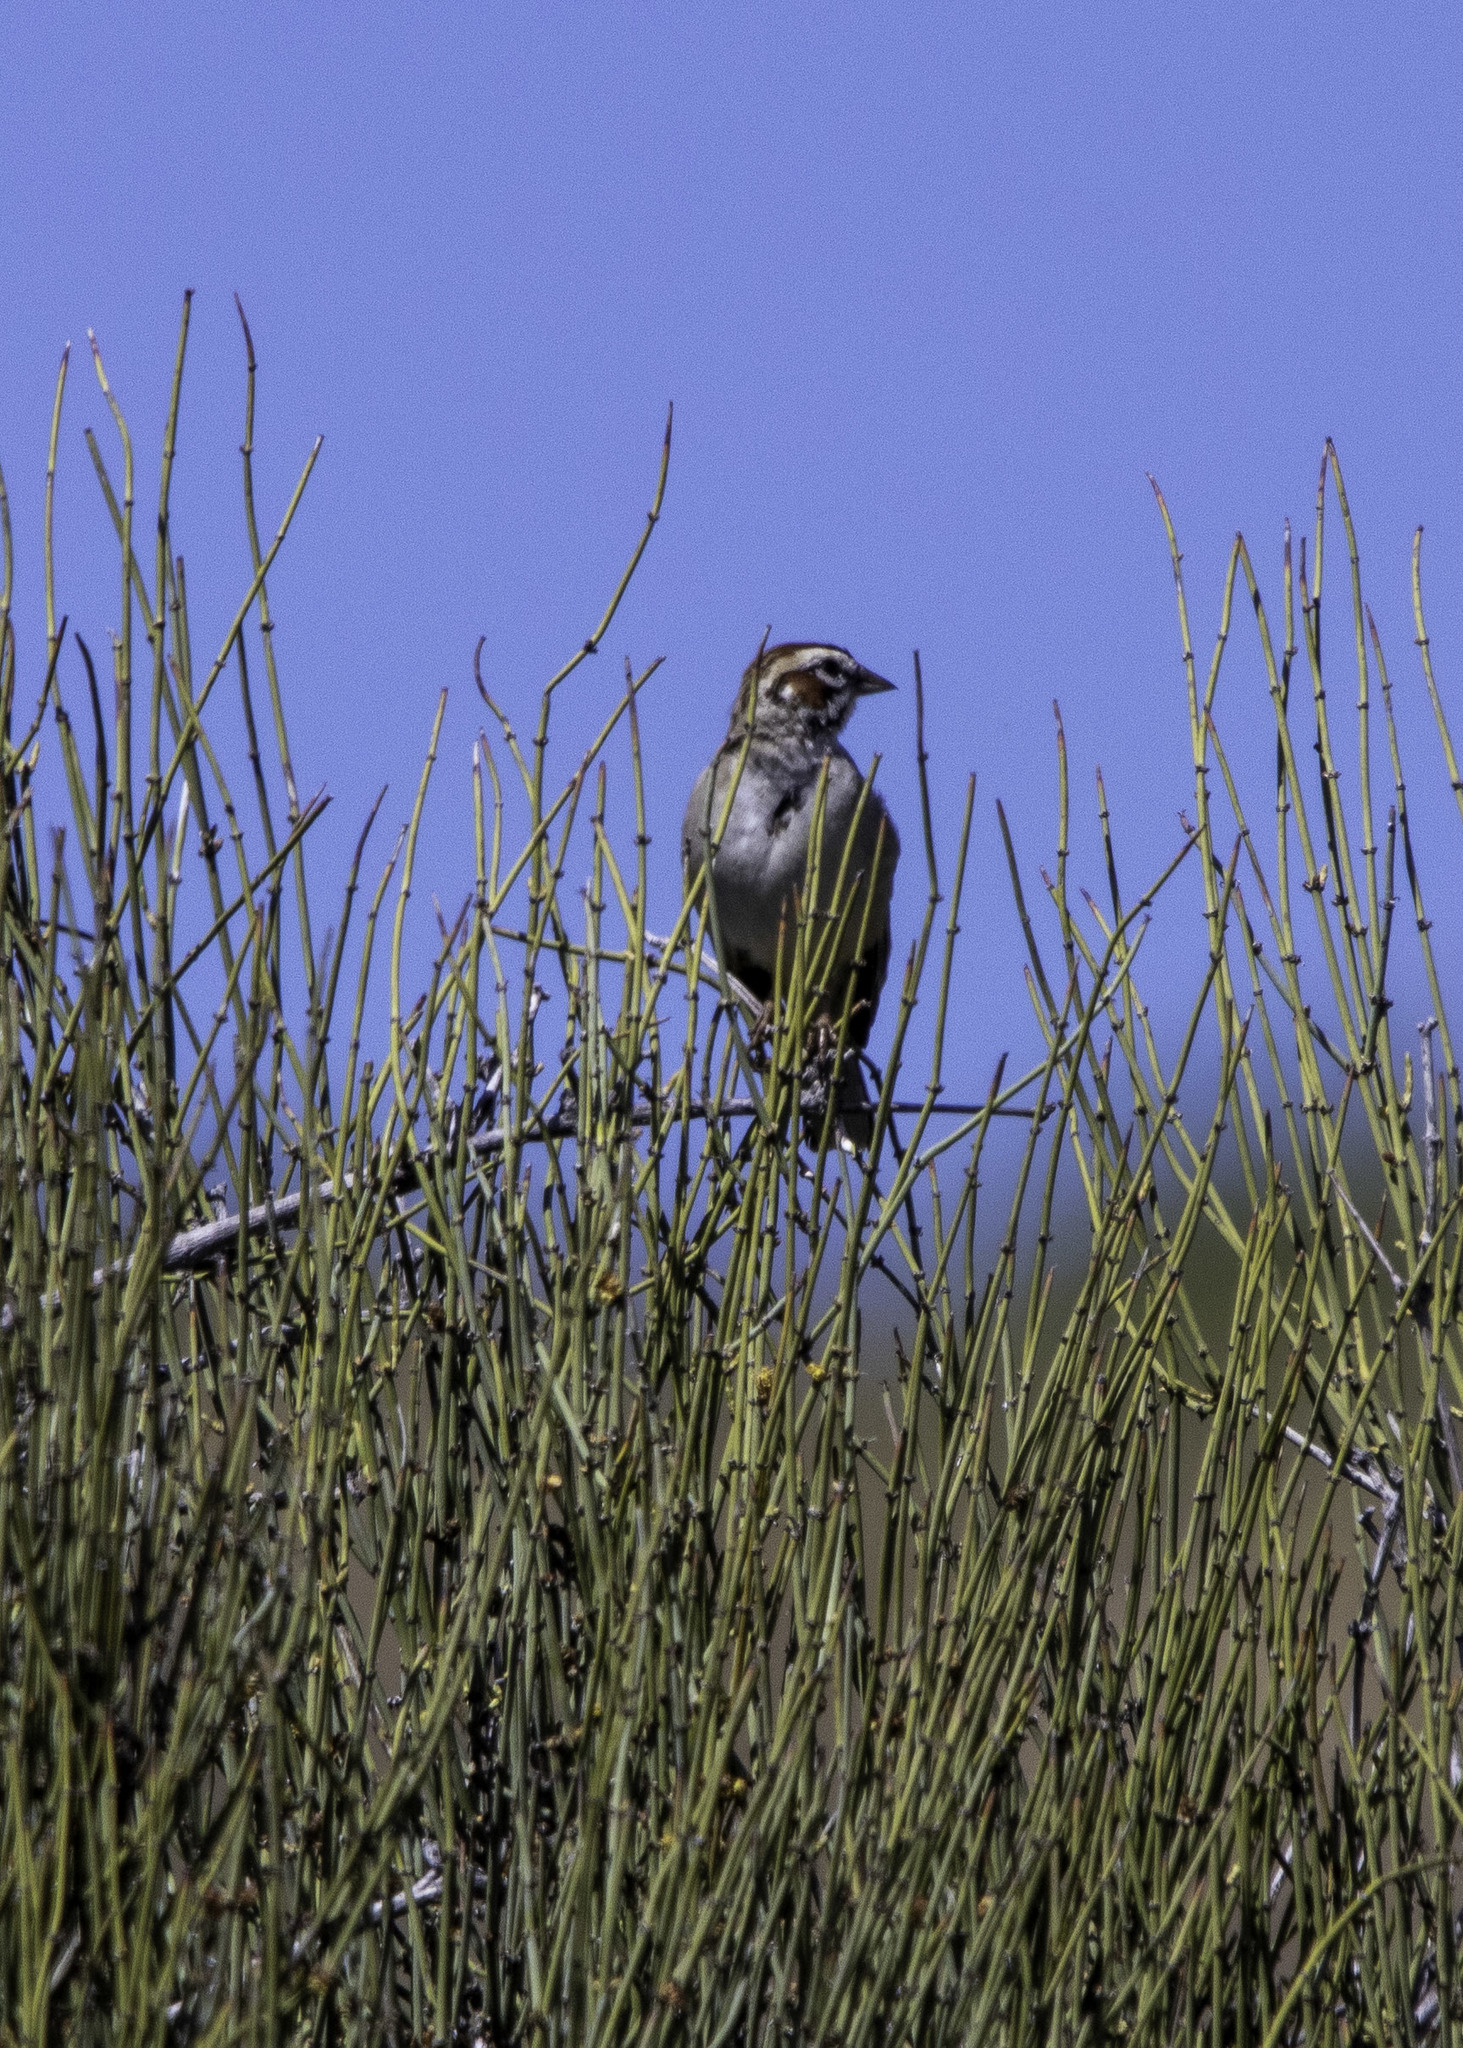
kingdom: Animalia
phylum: Chordata
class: Aves
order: Passeriformes
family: Passerellidae
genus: Chondestes
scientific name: Chondestes grammacus
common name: Lark sparrow
